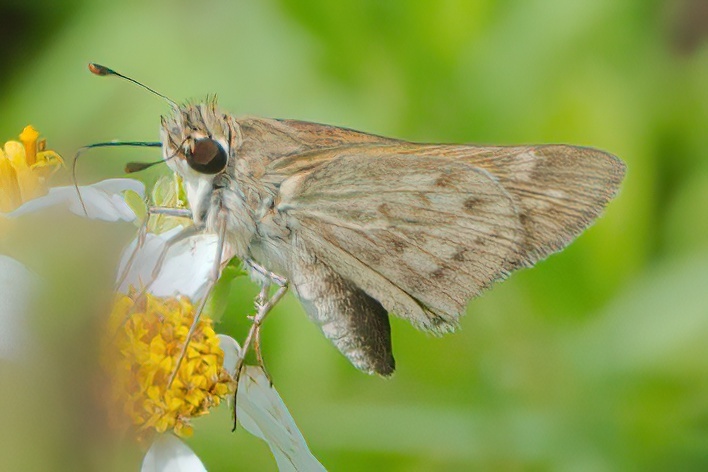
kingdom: Animalia
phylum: Arthropoda
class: Insecta
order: Lepidoptera
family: Hesperiidae
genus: Hylephila
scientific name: Hylephila phyleus
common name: Fiery skipper
